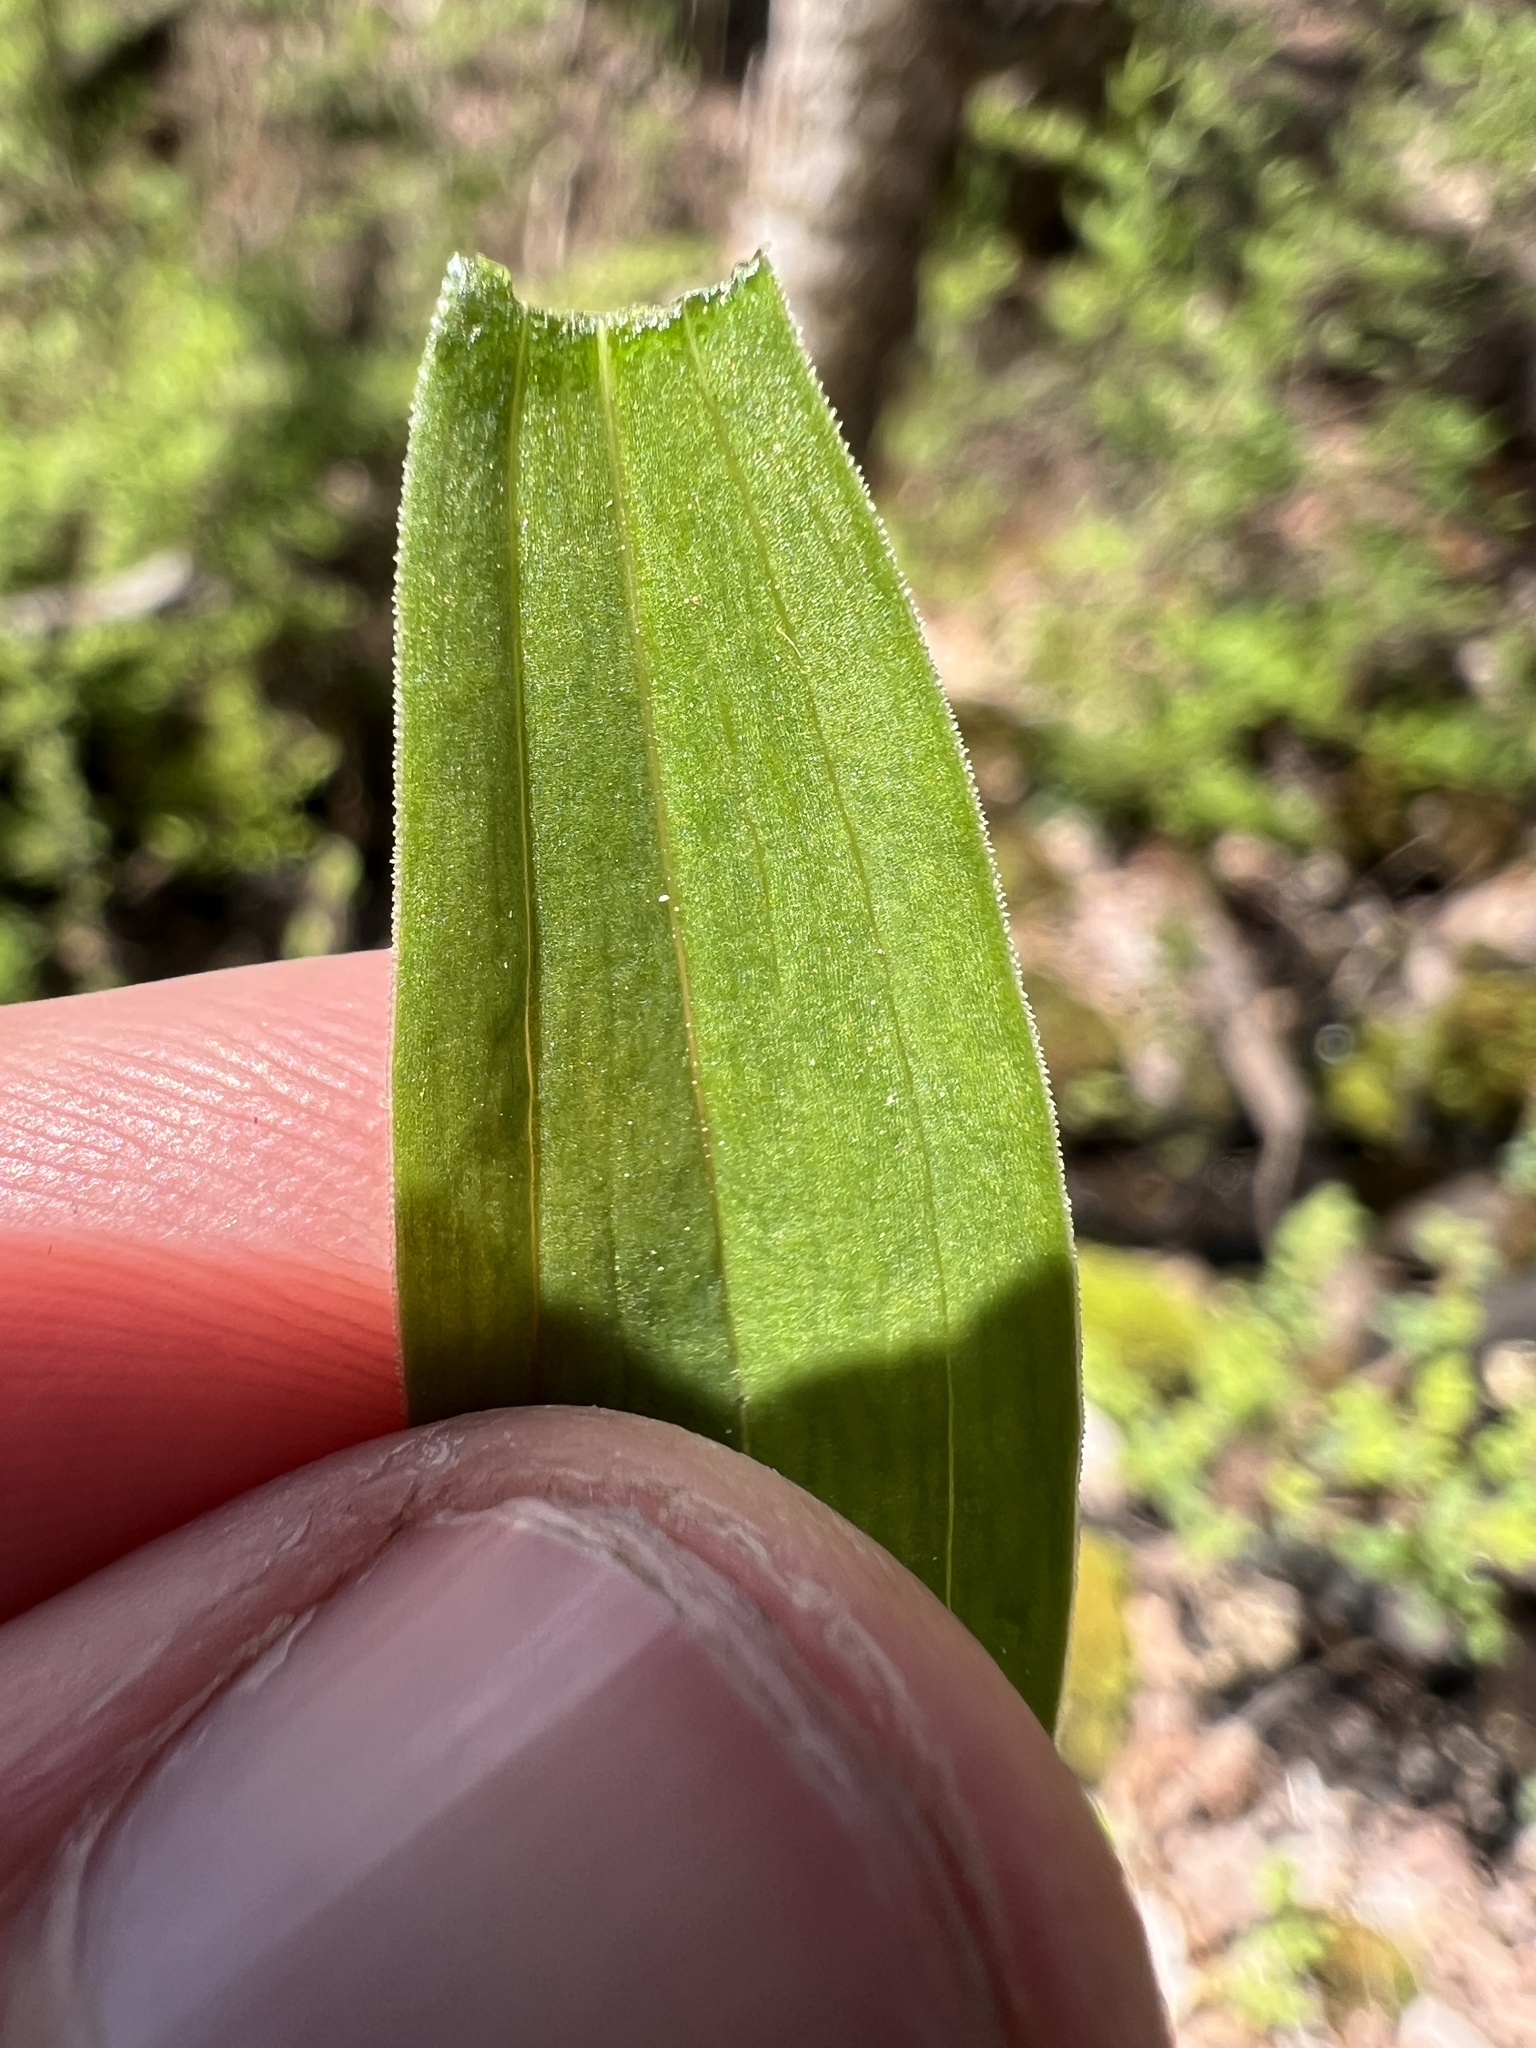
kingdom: Plantae
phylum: Tracheophyta
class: Liliopsida
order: Liliales
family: Liliaceae
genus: Lilium
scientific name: Lilium michiganense
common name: Michigan lily
